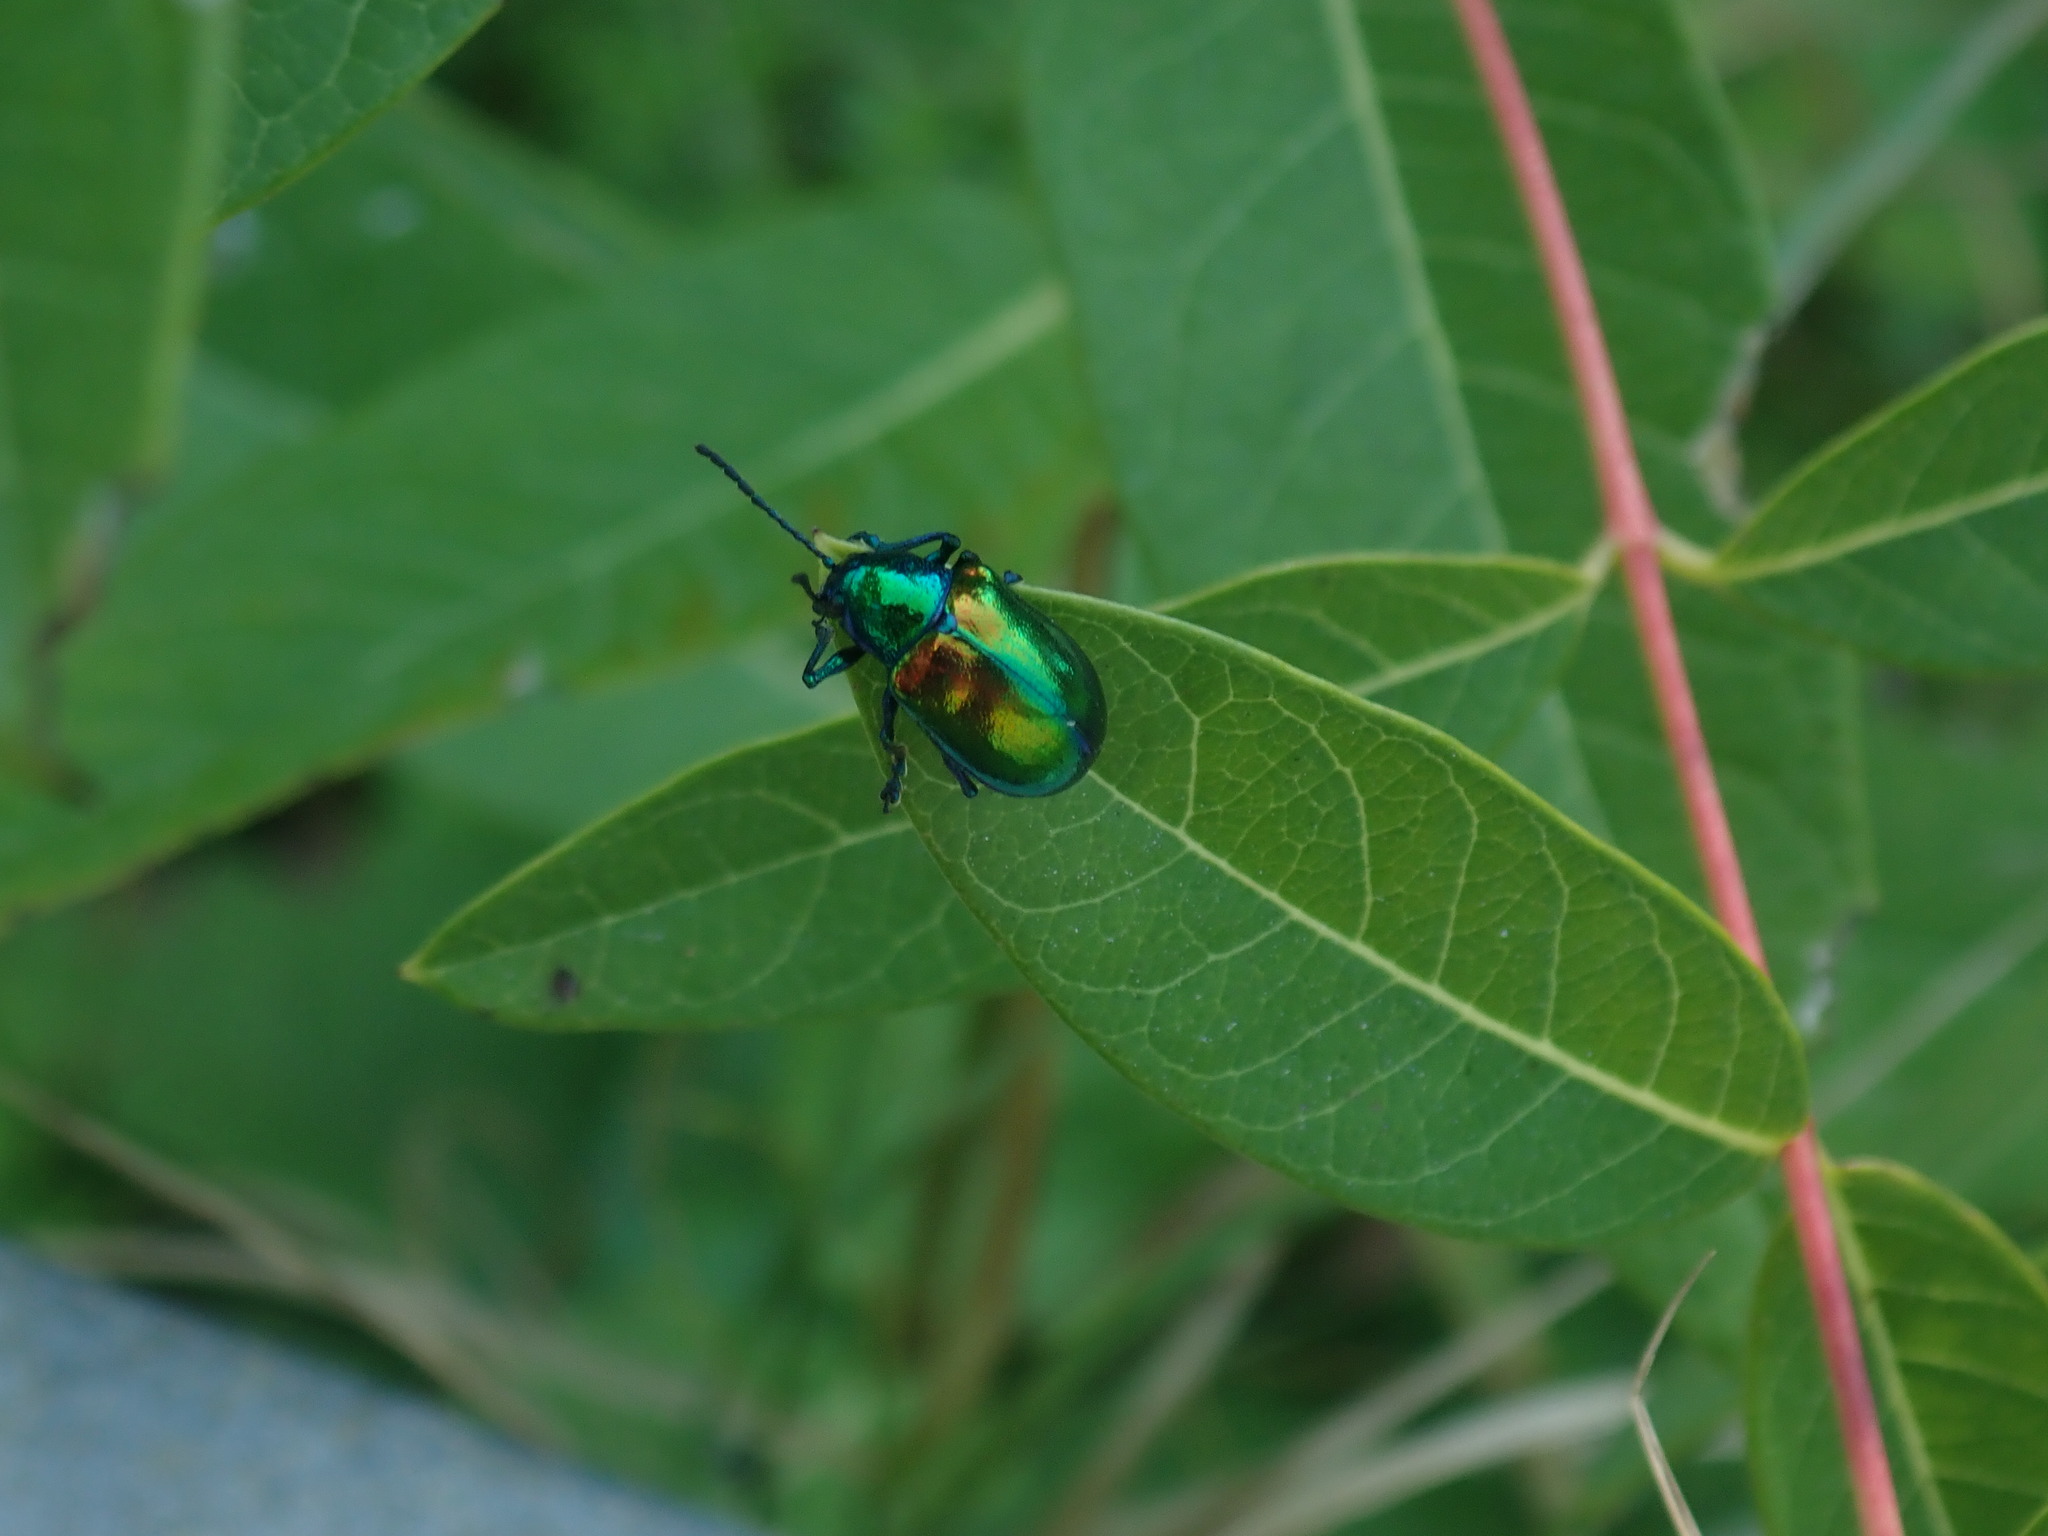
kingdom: Animalia
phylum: Arthropoda
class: Insecta
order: Coleoptera
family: Chrysomelidae
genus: Chrysochus
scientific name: Chrysochus auratus
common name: Dogbane leaf beetle
